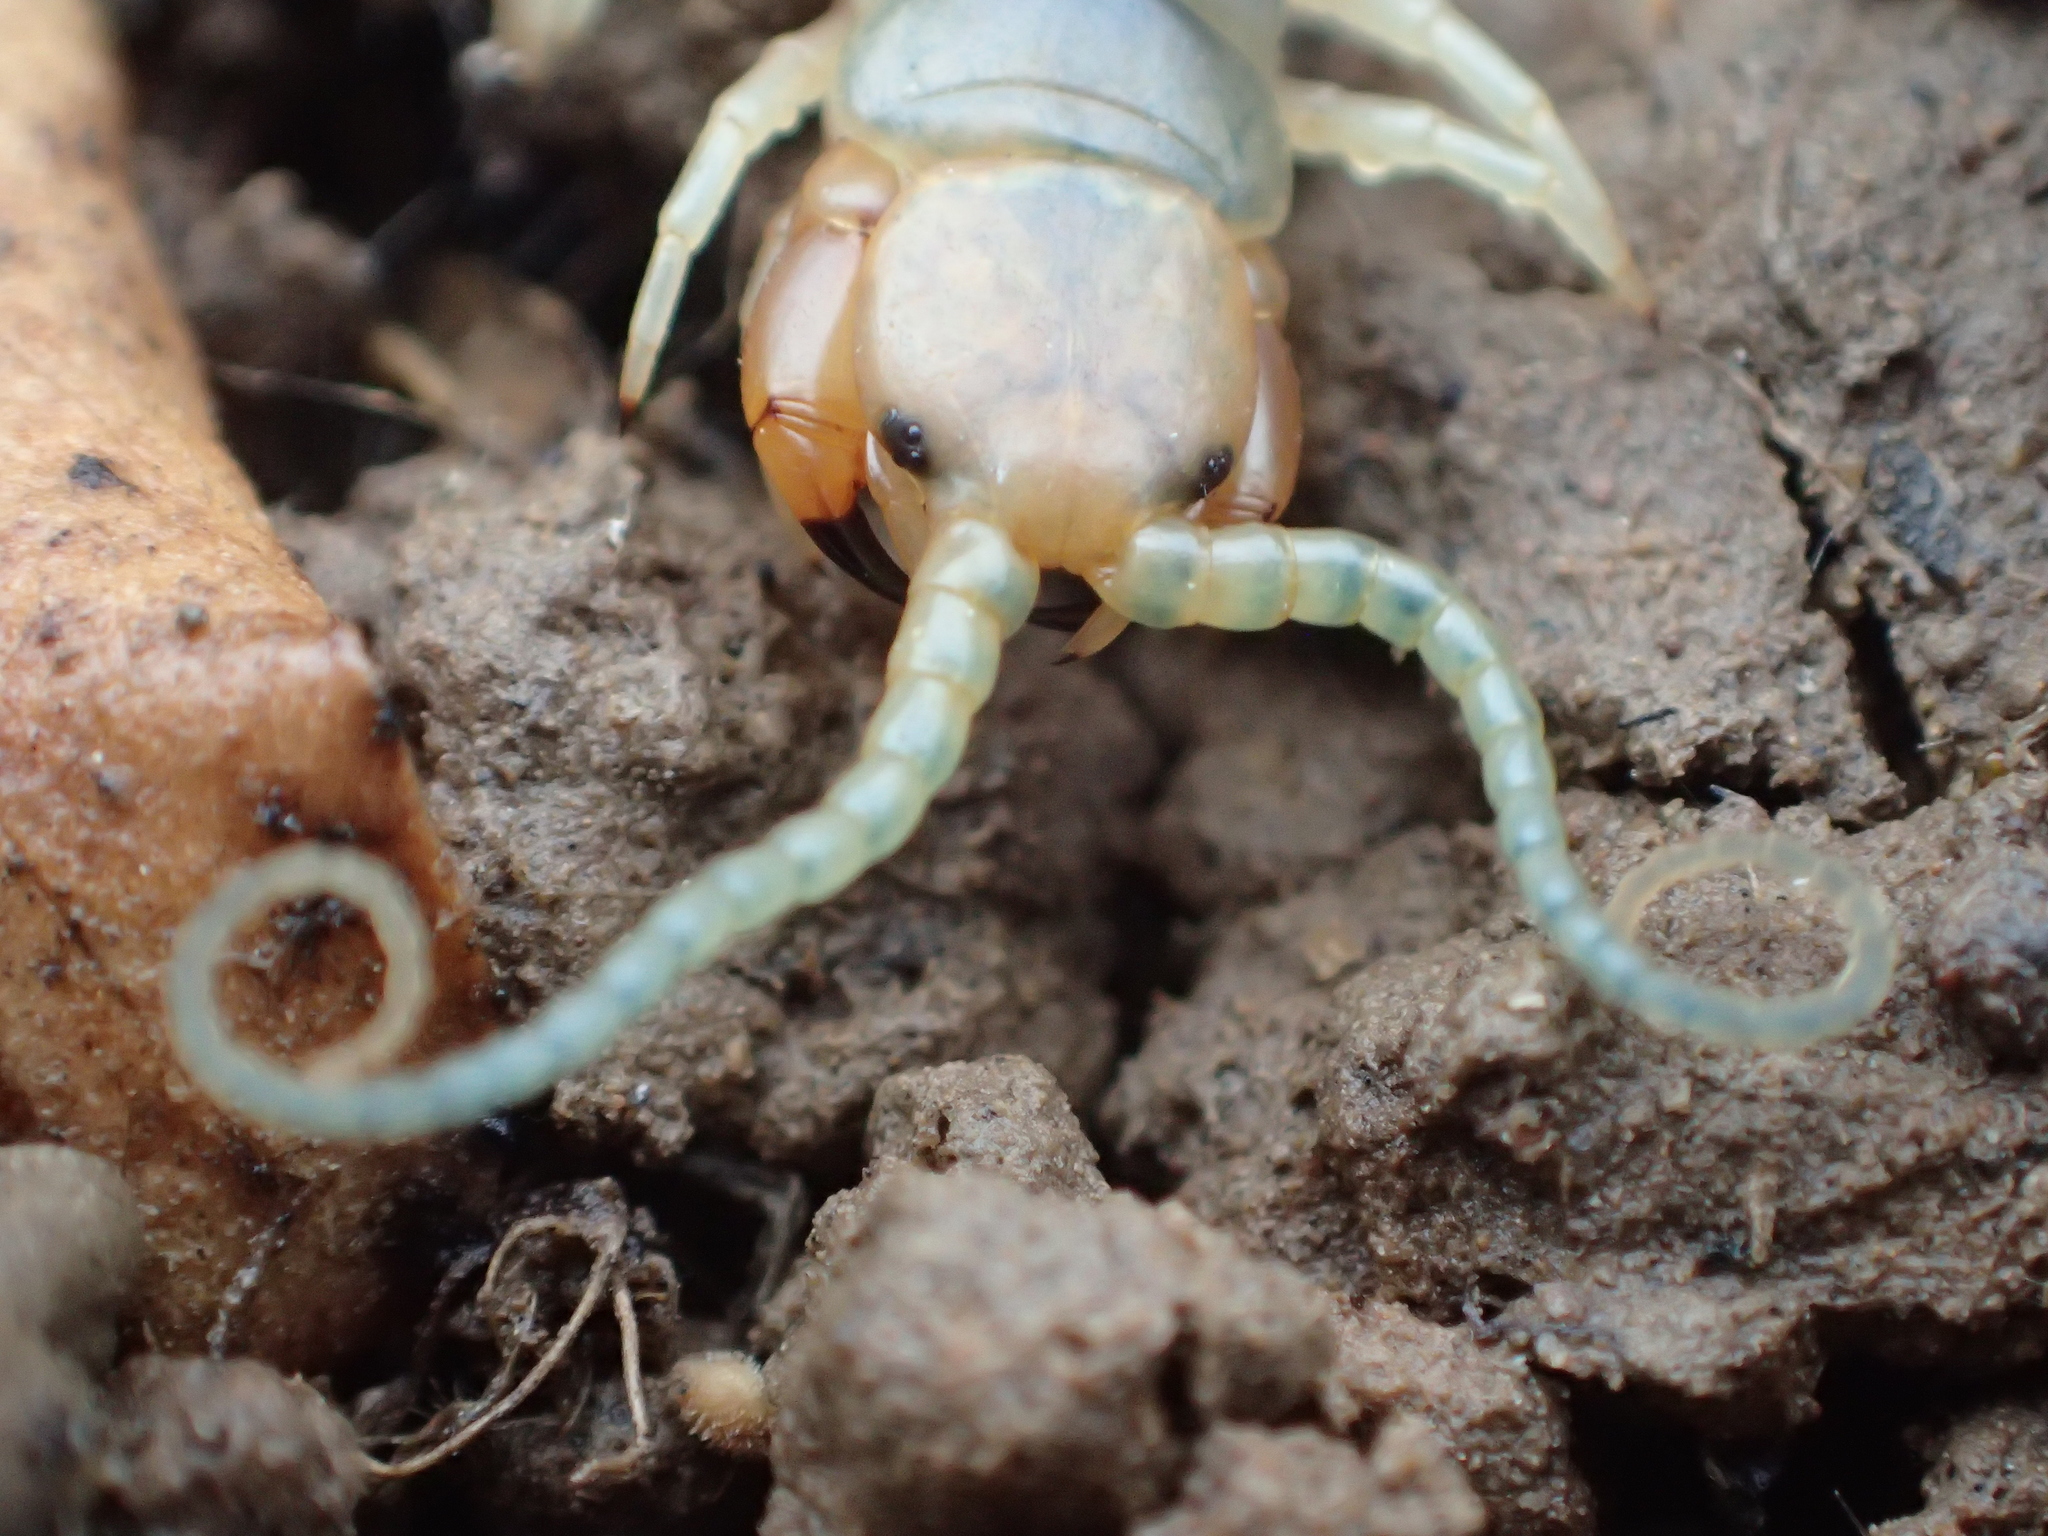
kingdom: Animalia
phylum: Arthropoda
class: Chilopoda
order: Scolopendromorpha
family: Scolopendridae
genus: Scolopendra
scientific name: Scolopendra polymorpha
